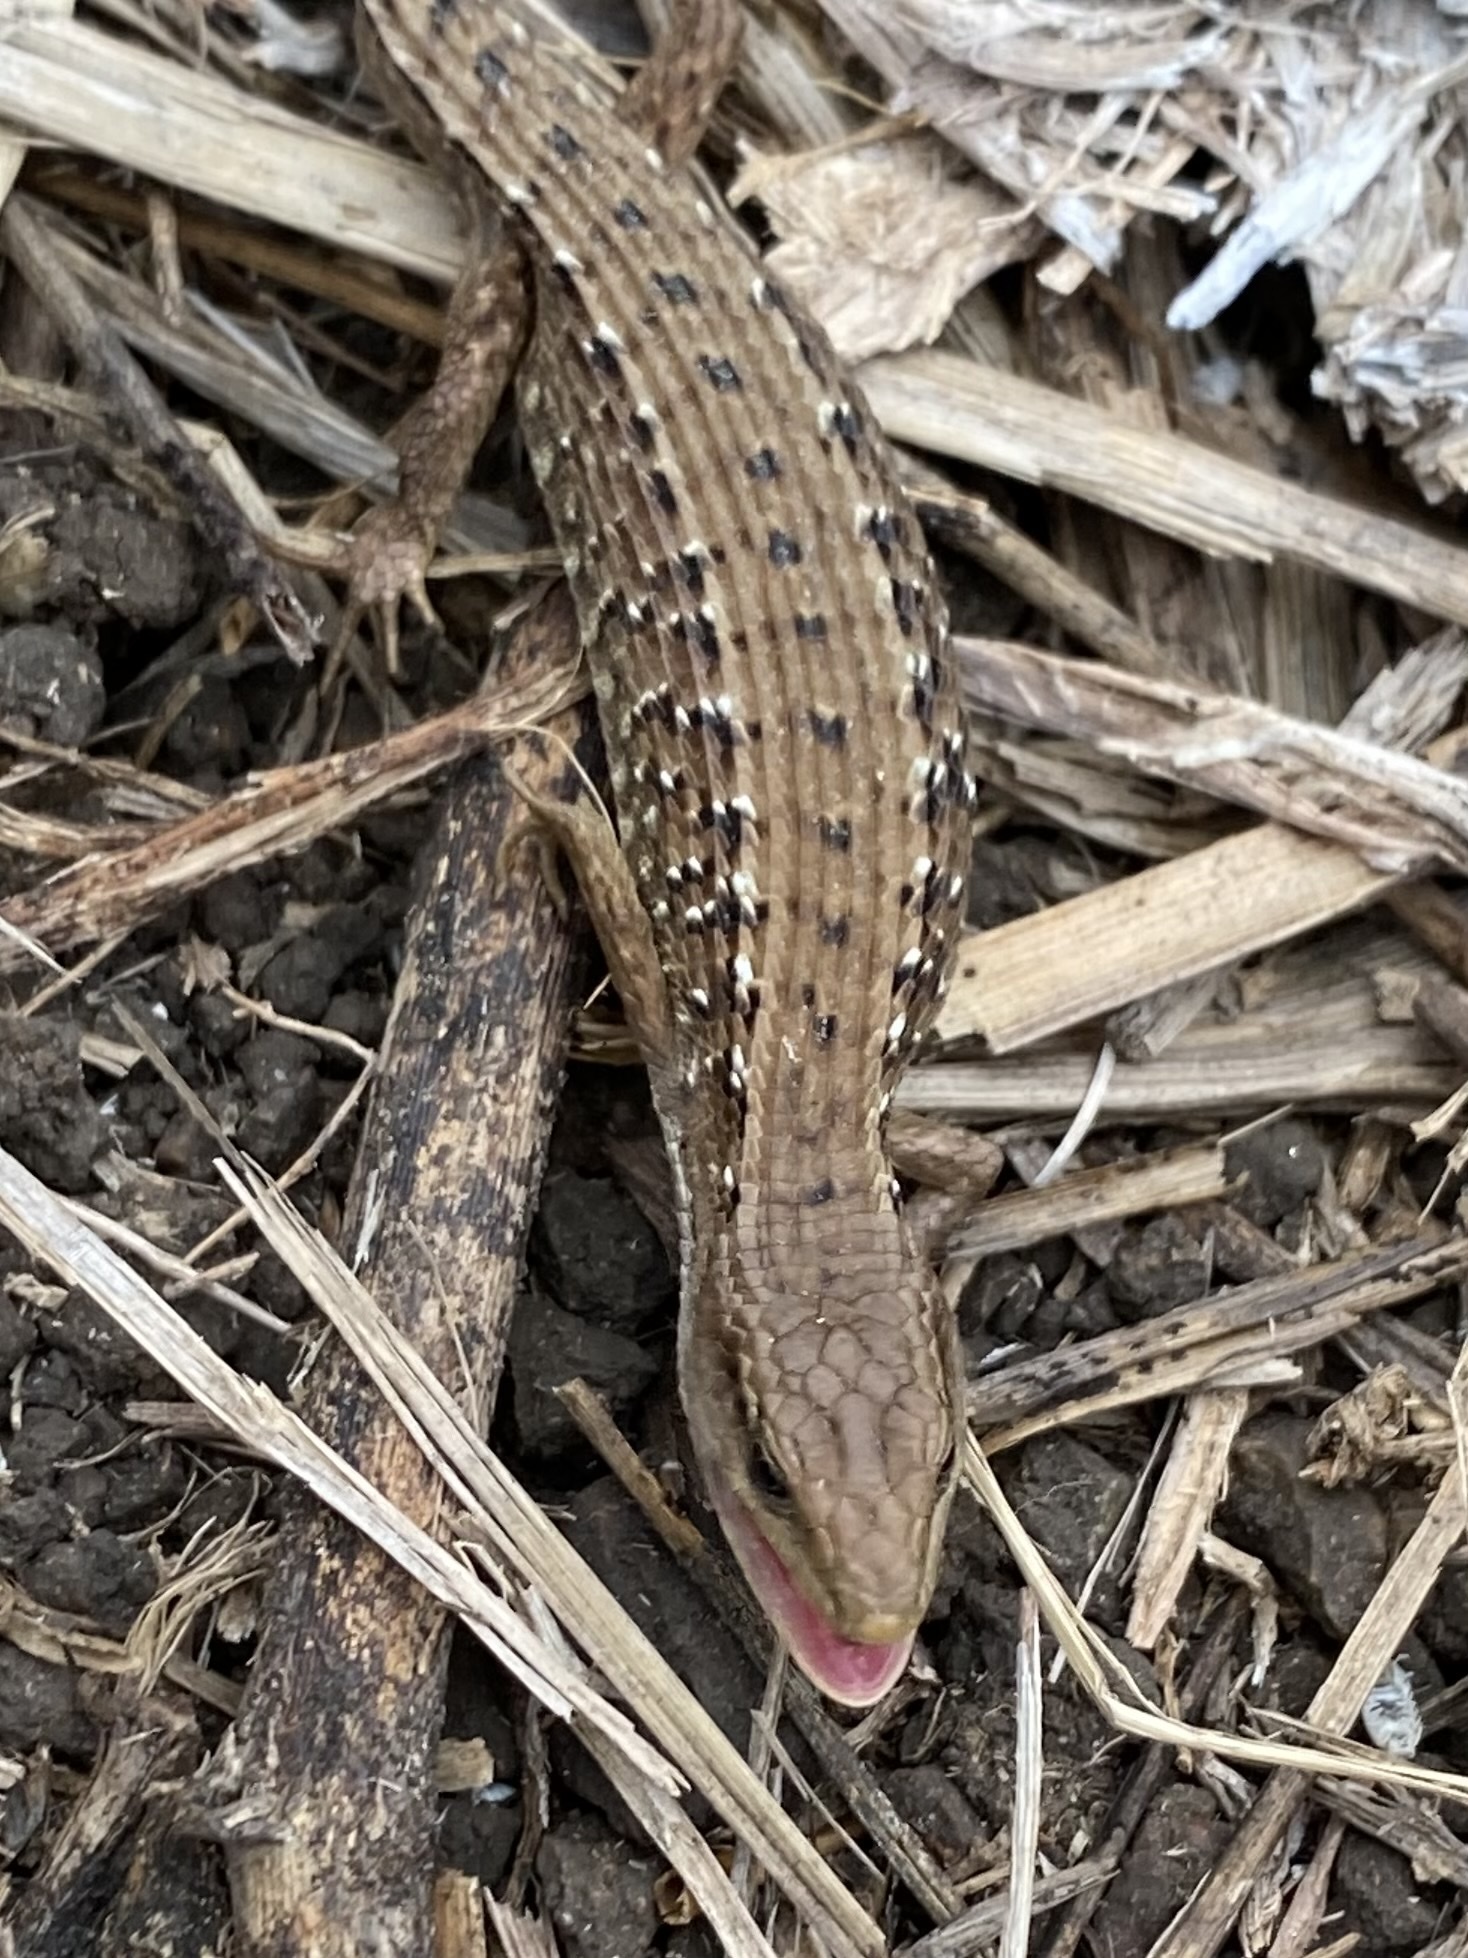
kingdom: Animalia
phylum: Chordata
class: Squamata
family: Anguidae
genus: Elgaria
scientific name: Elgaria coerulea
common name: Northern alligator lizard
